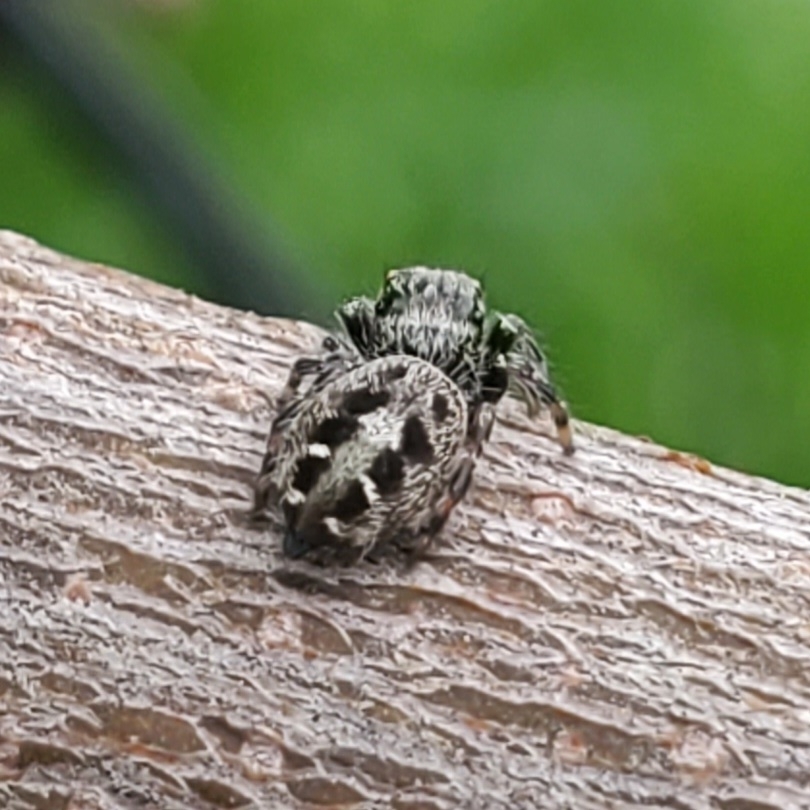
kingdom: Animalia
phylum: Arthropoda
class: Arachnida
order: Araneae
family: Salticidae
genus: Phidippus
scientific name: Phidippus putnami
